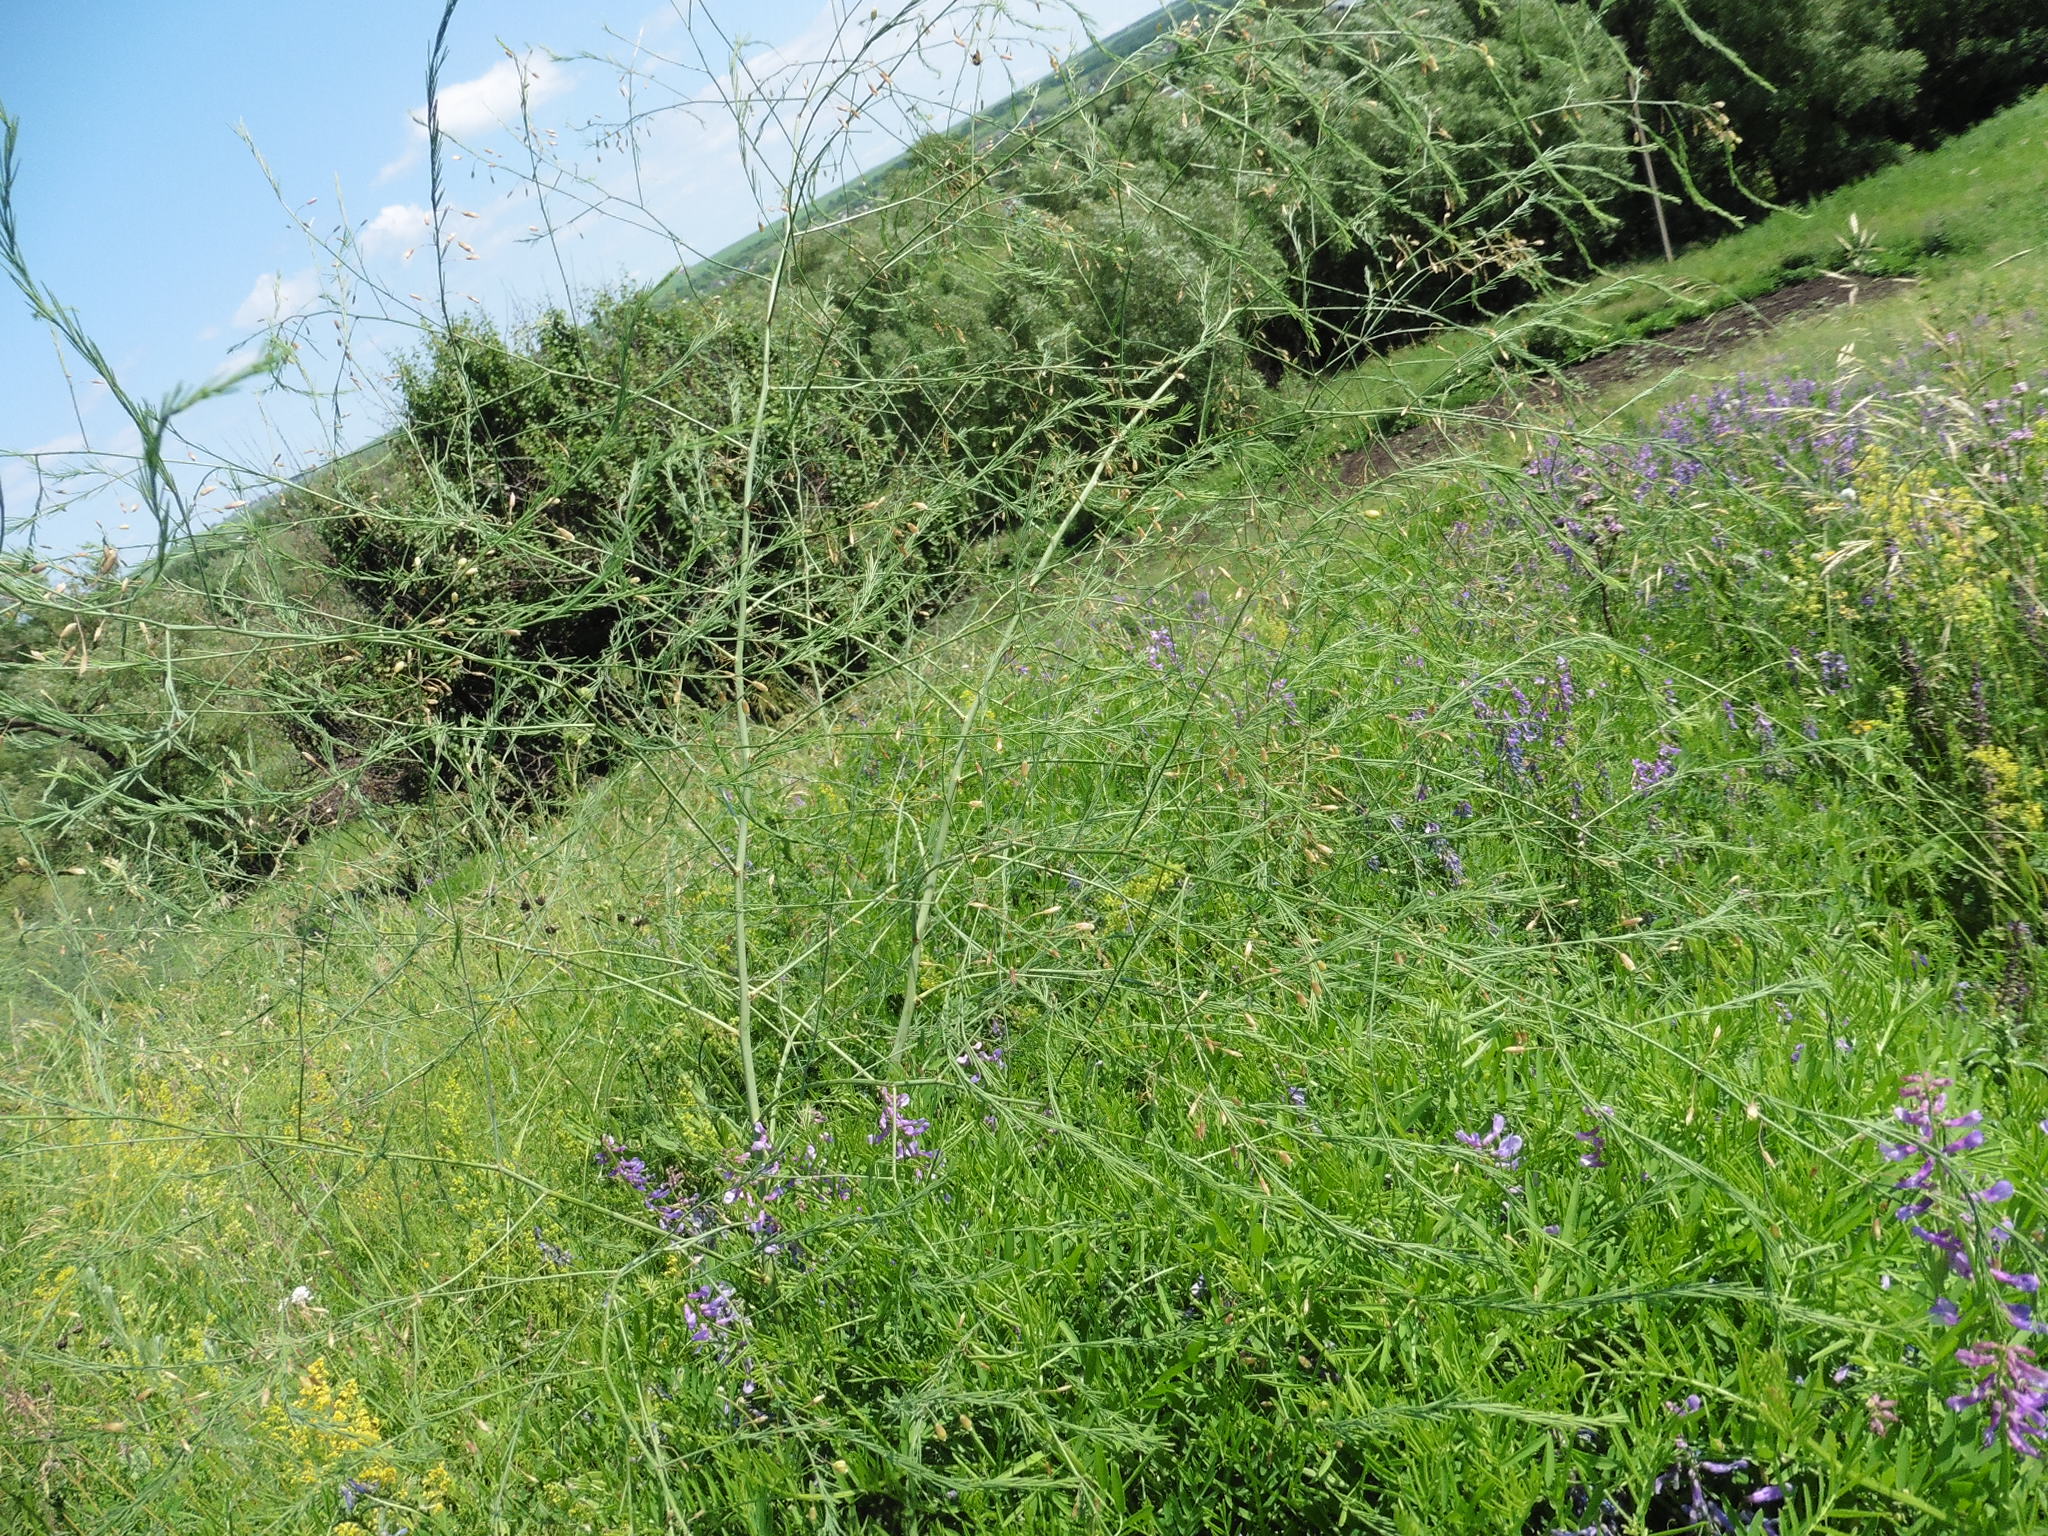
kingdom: Plantae
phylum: Tracheophyta
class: Liliopsida
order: Asparagales
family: Asparagaceae
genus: Asparagus
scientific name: Asparagus officinalis
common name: Garden asparagus
